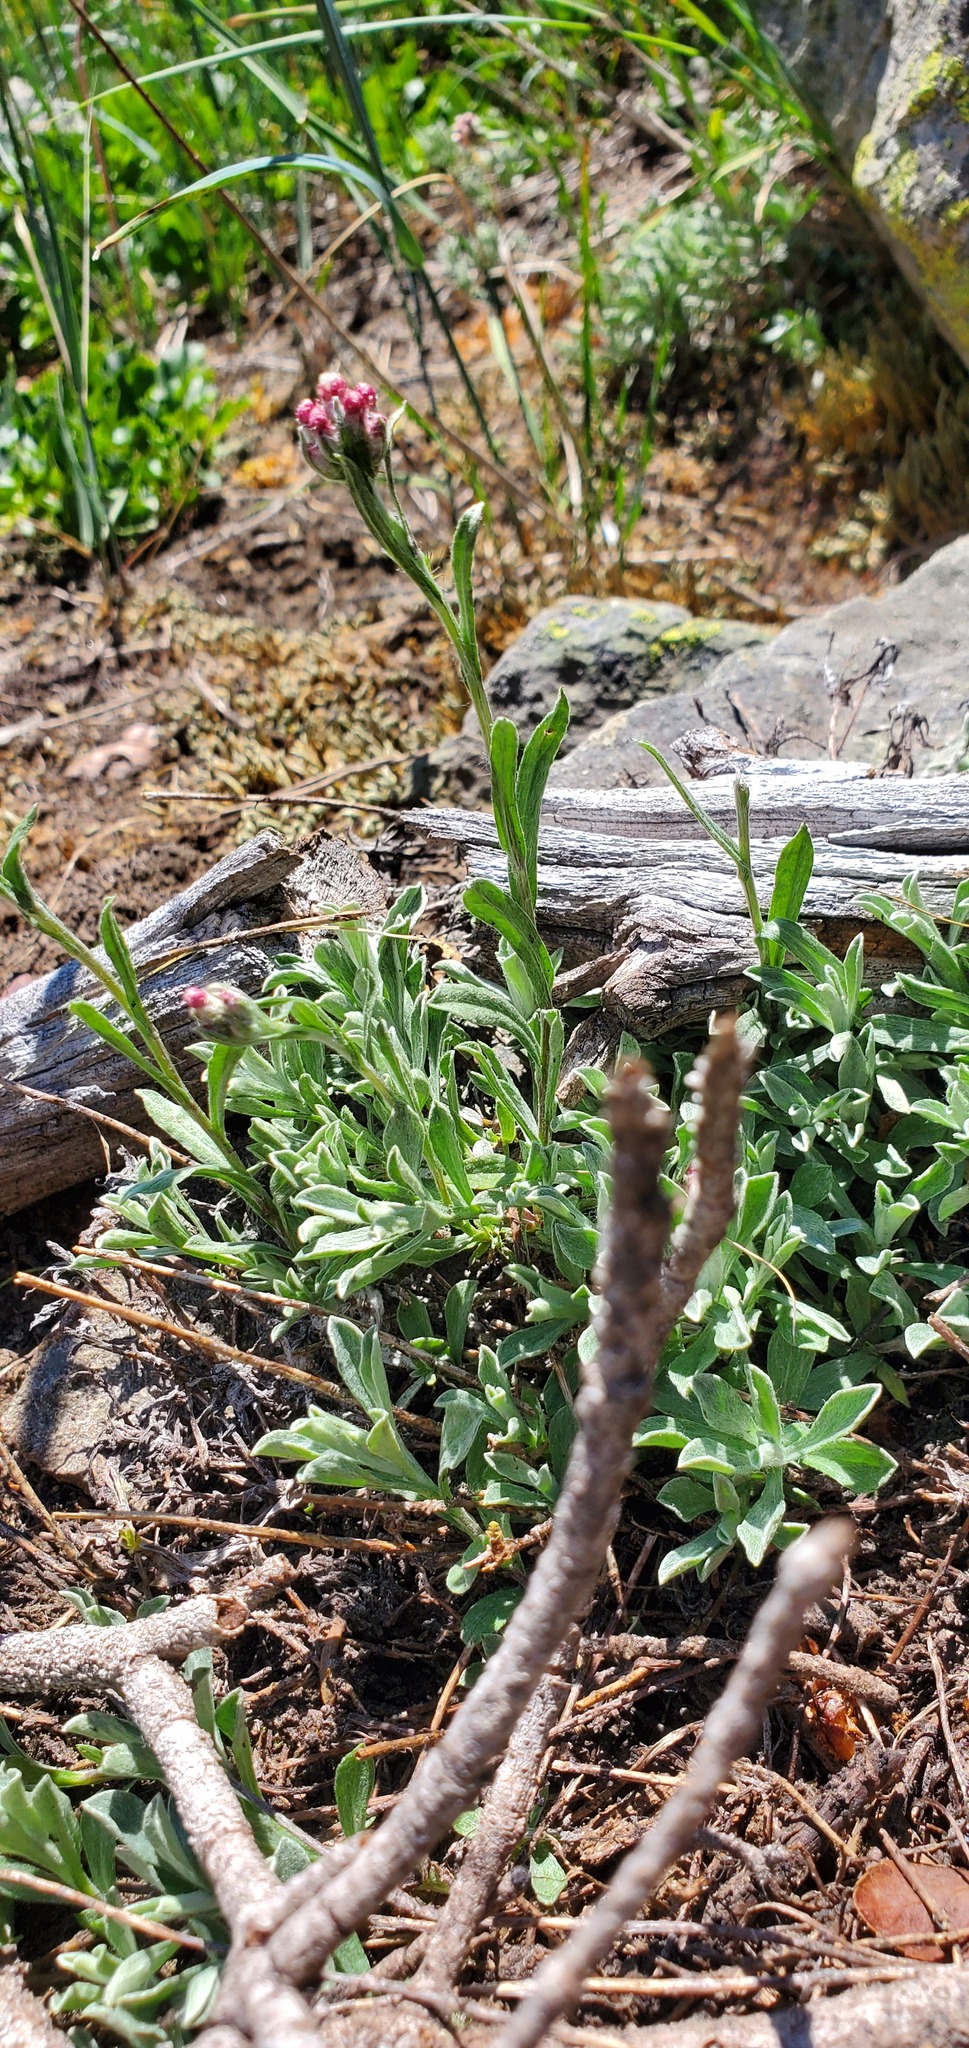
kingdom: Plantae
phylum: Tracheophyta
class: Magnoliopsida
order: Asterales
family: Asteraceae
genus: Antennaria
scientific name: Antennaria rosea
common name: Rosy pussytoes
